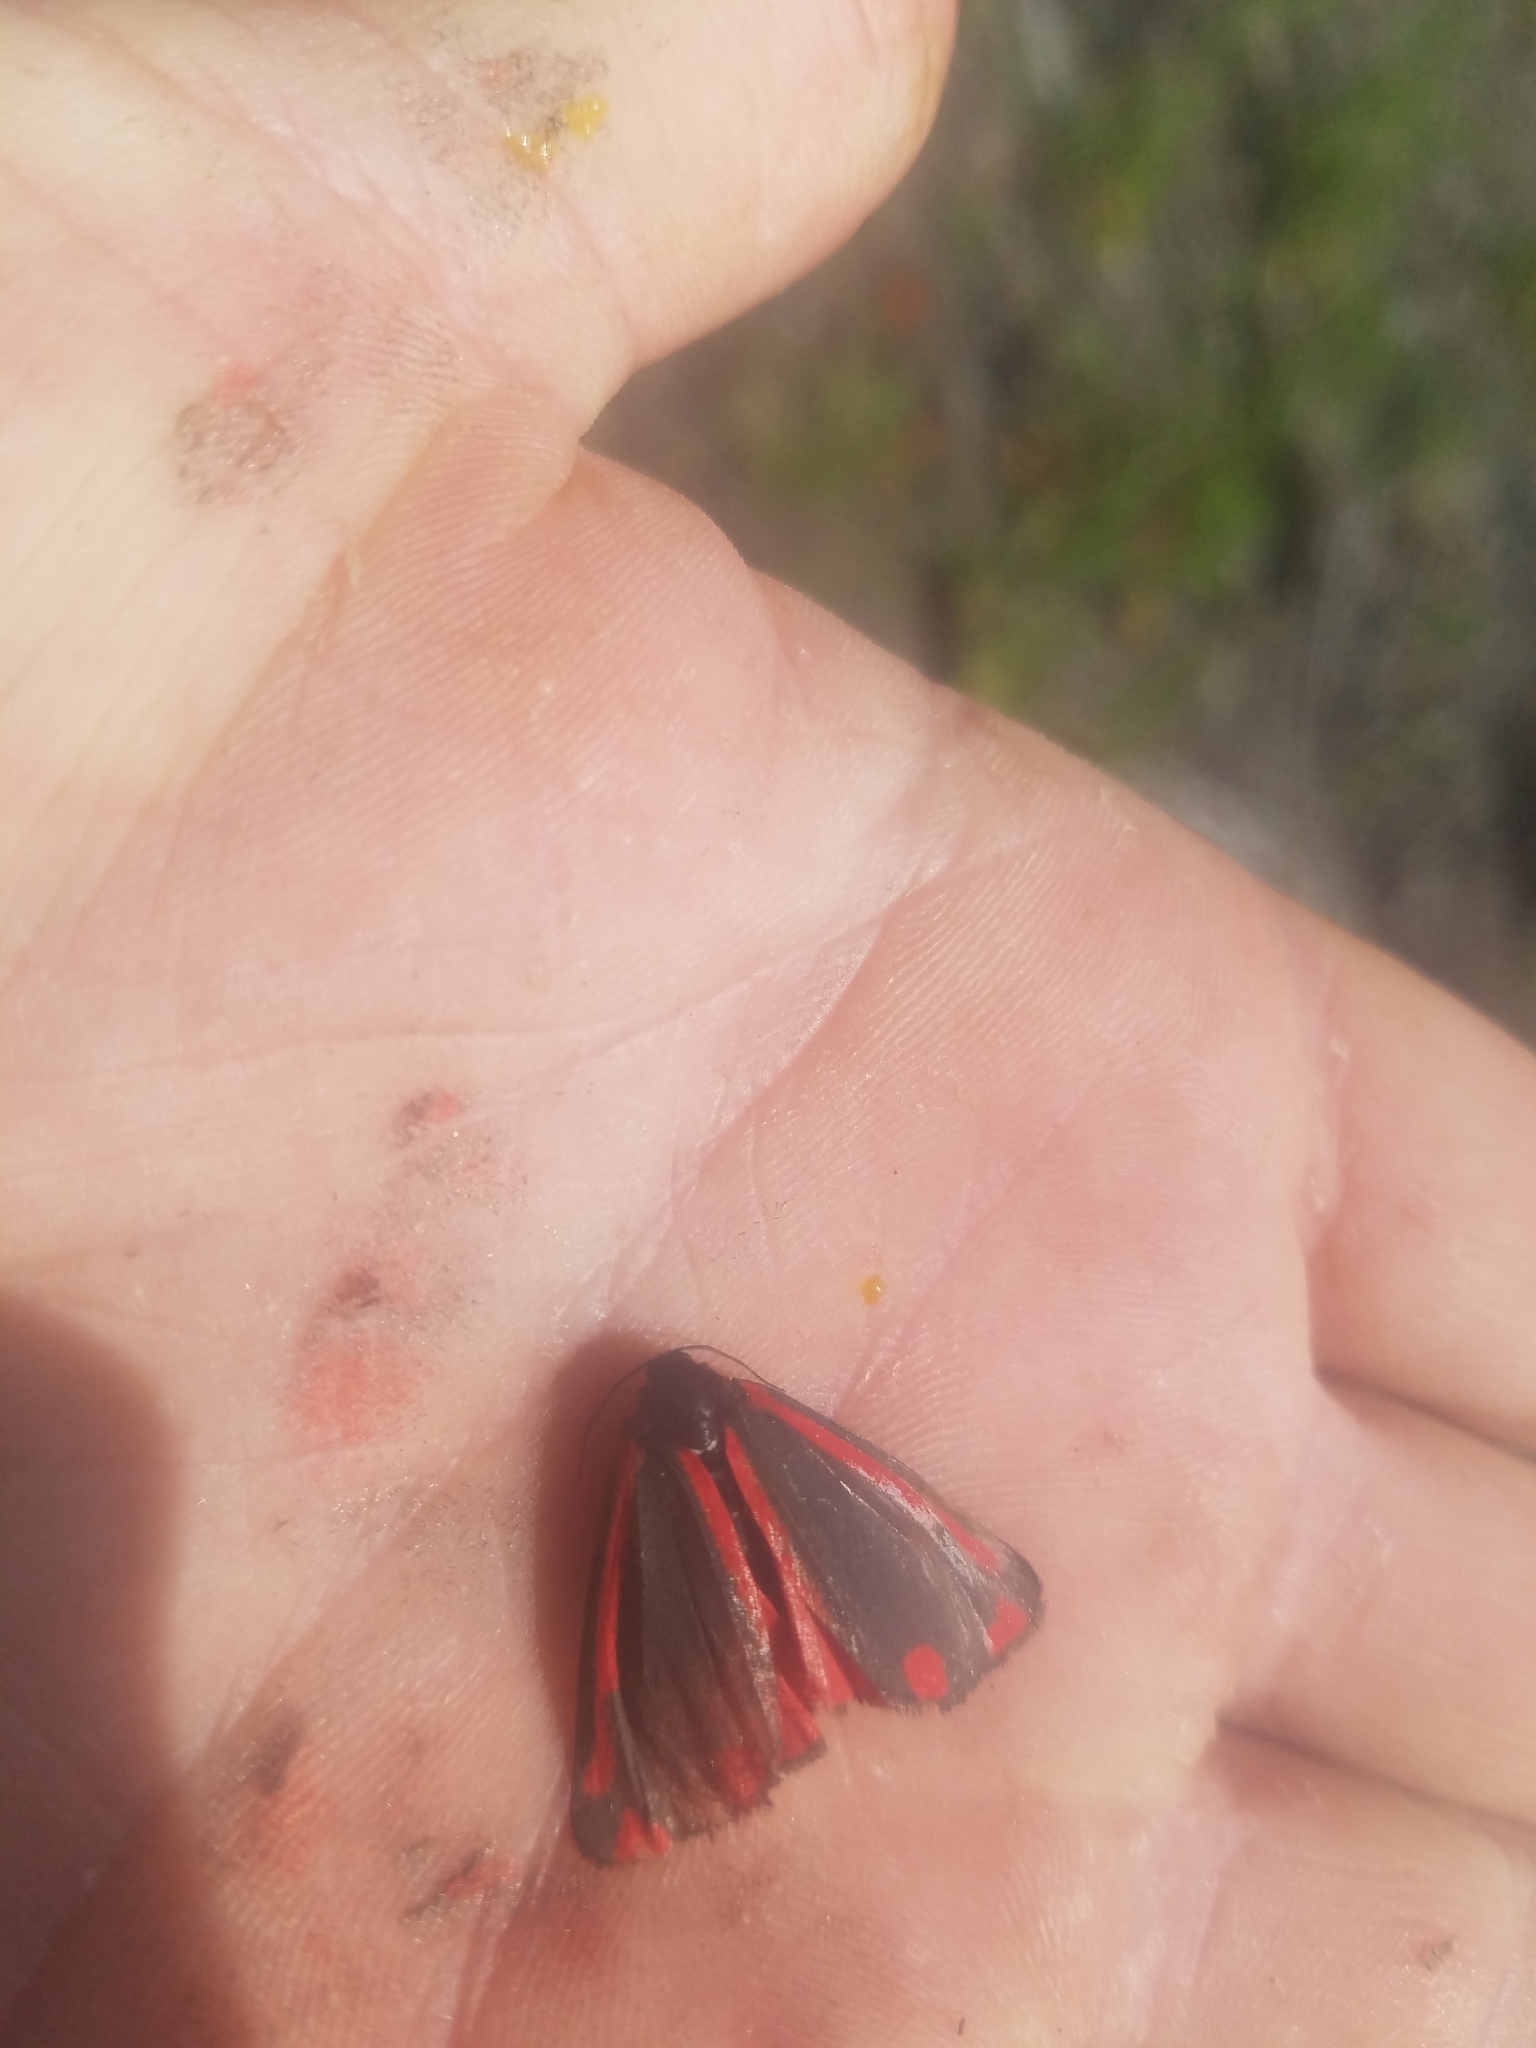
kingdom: Animalia
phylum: Arthropoda
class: Insecta
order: Lepidoptera
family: Erebidae
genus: Tyria
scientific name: Tyria jacobaeae
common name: Cinnabar
